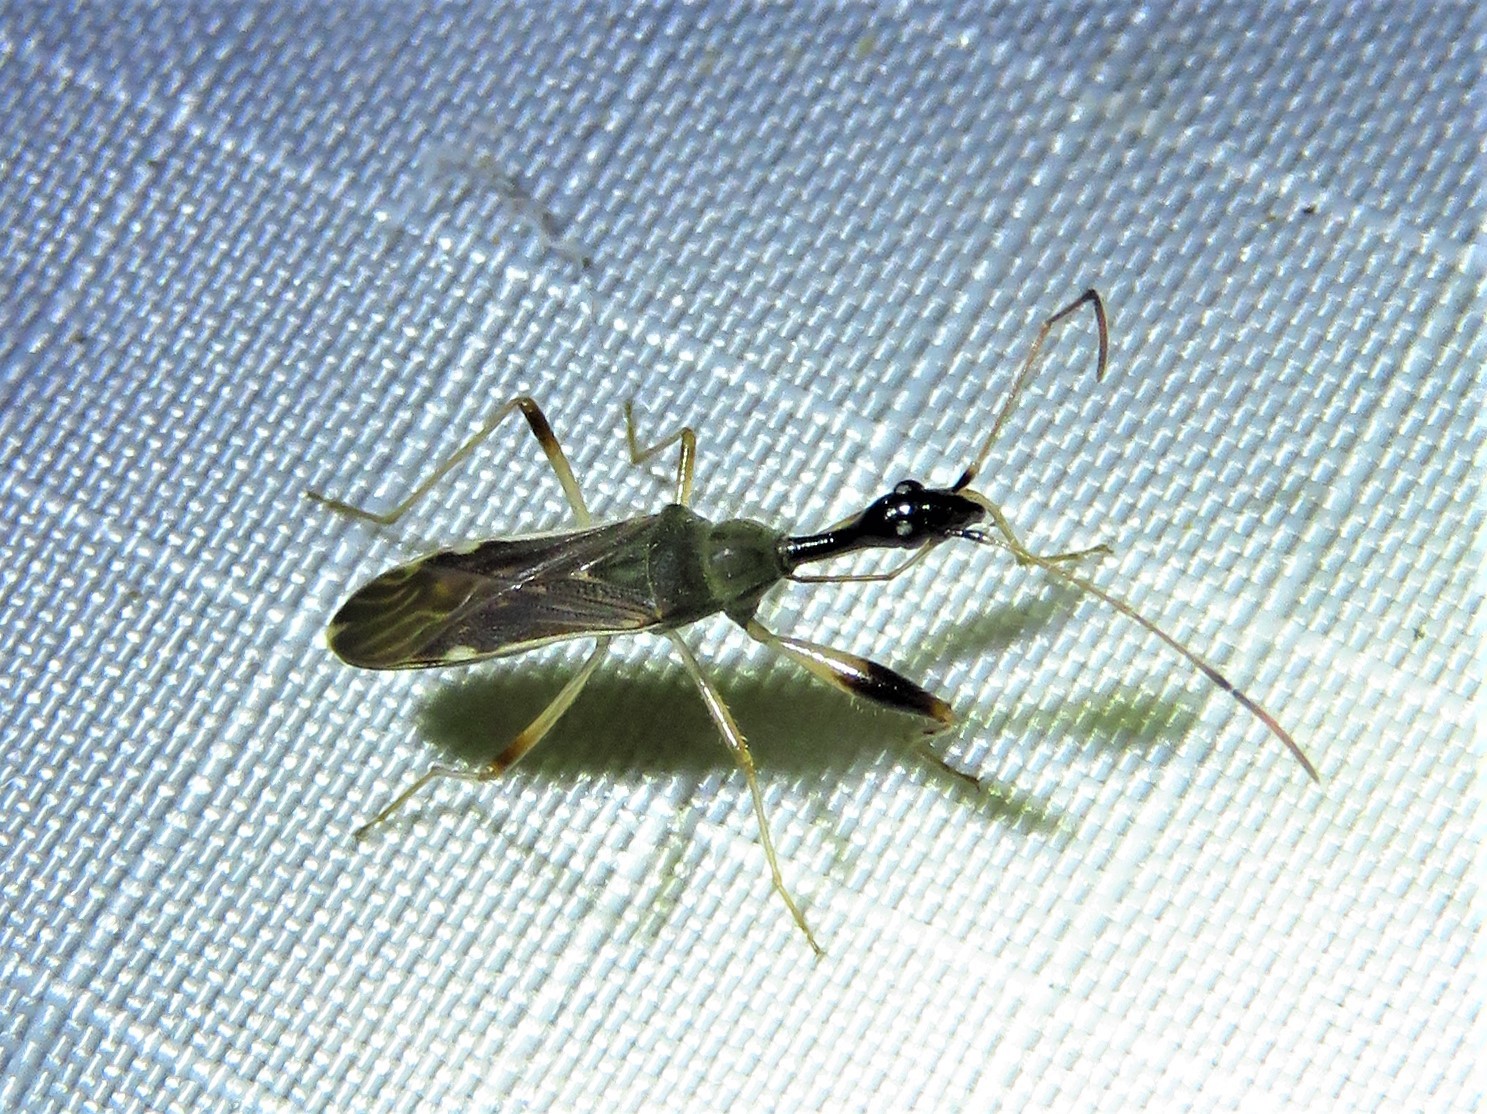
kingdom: Animalia
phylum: Arthropoda
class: Insecta
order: Hemiptera
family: Rhyparochromidae
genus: Myodocha
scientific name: Myodocha serripes
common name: Long-necked seed bug
